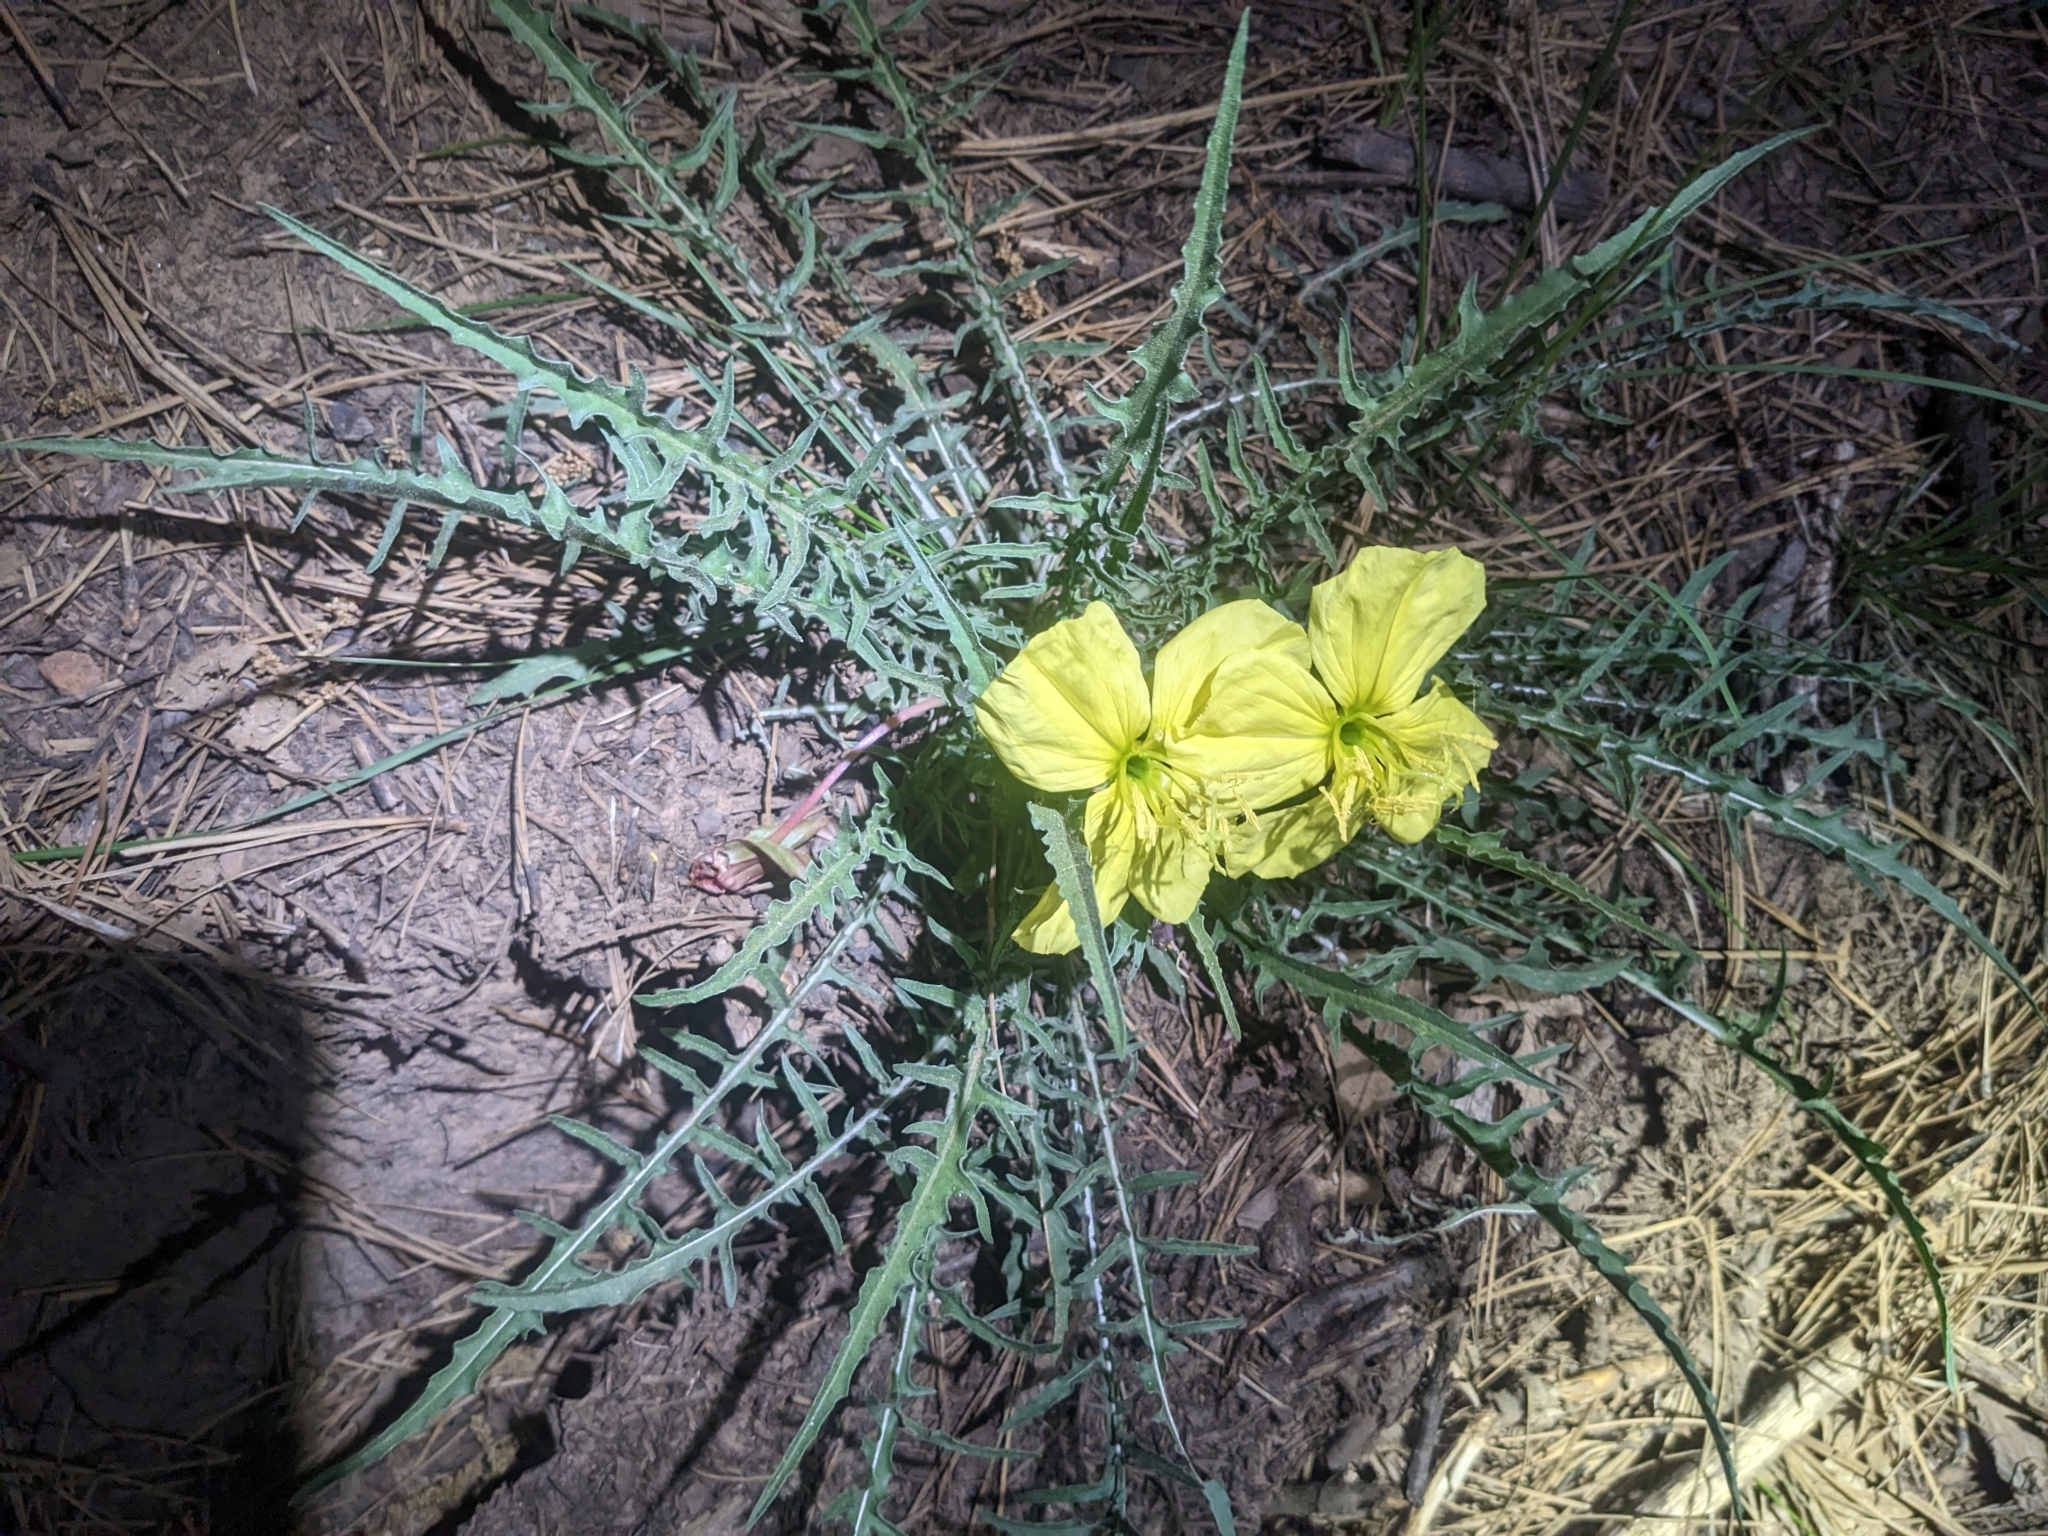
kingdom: Plantae
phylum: Tracheophyta
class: Magnoliopsida
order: Myrtales
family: Onagraceae
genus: Oenothera
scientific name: Oenothera flava
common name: Long-tubed evening-primrose
